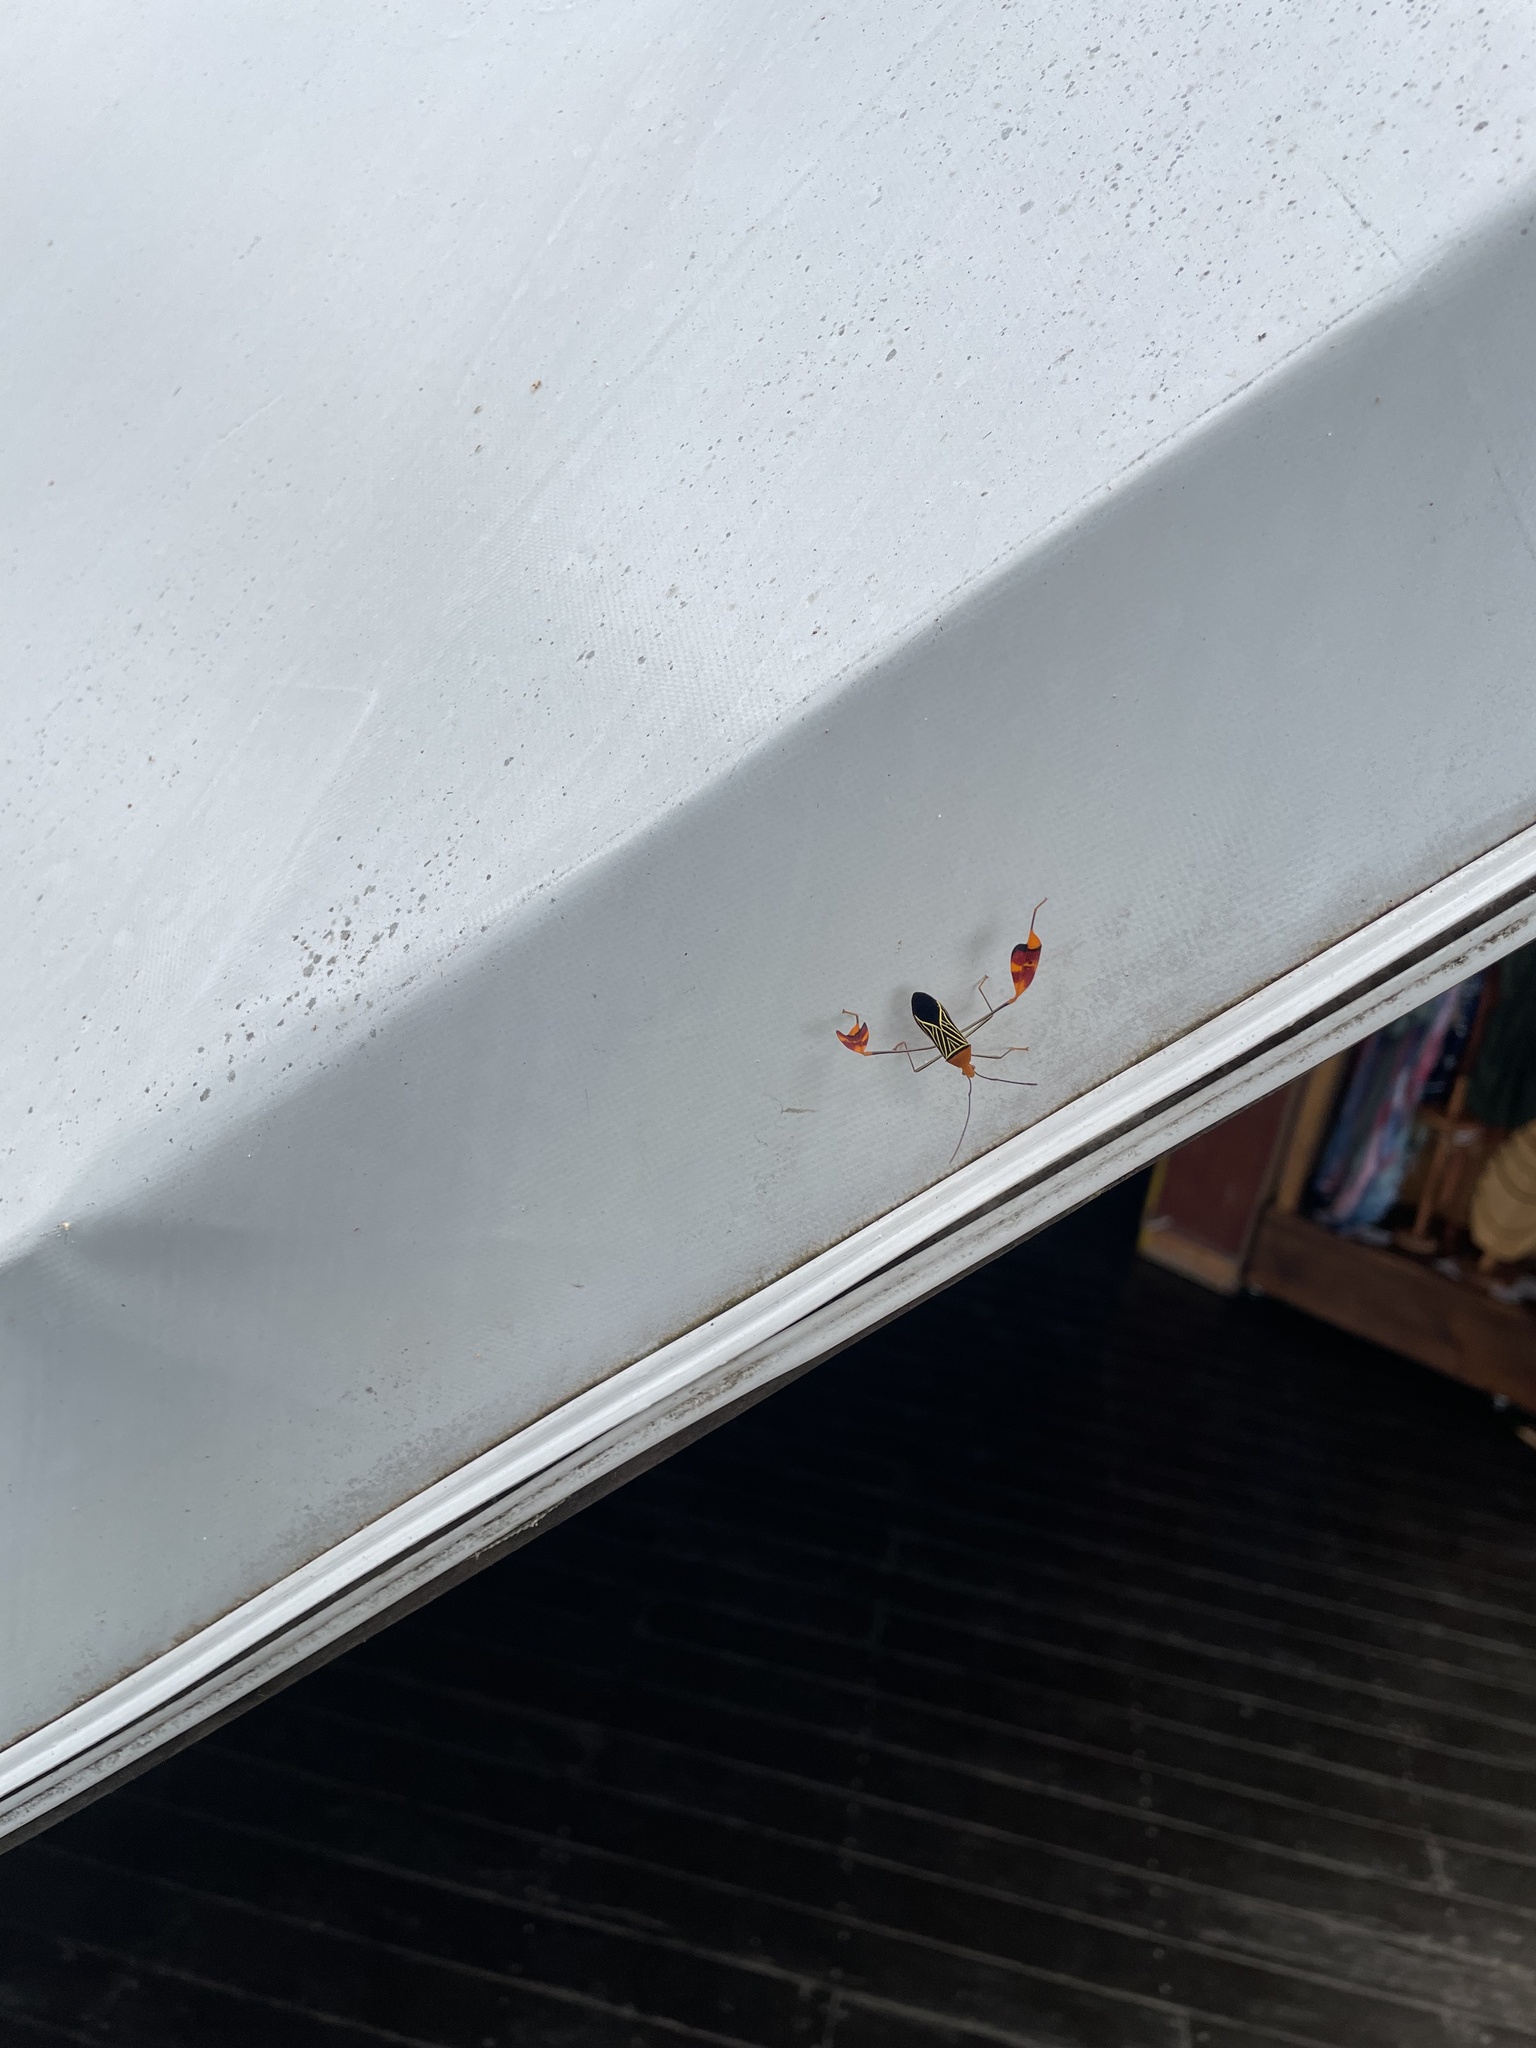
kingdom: Animalia
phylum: Arthropoda
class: Insecta
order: Hemiptera
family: Coreidae
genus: Bitta
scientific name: Bitta
